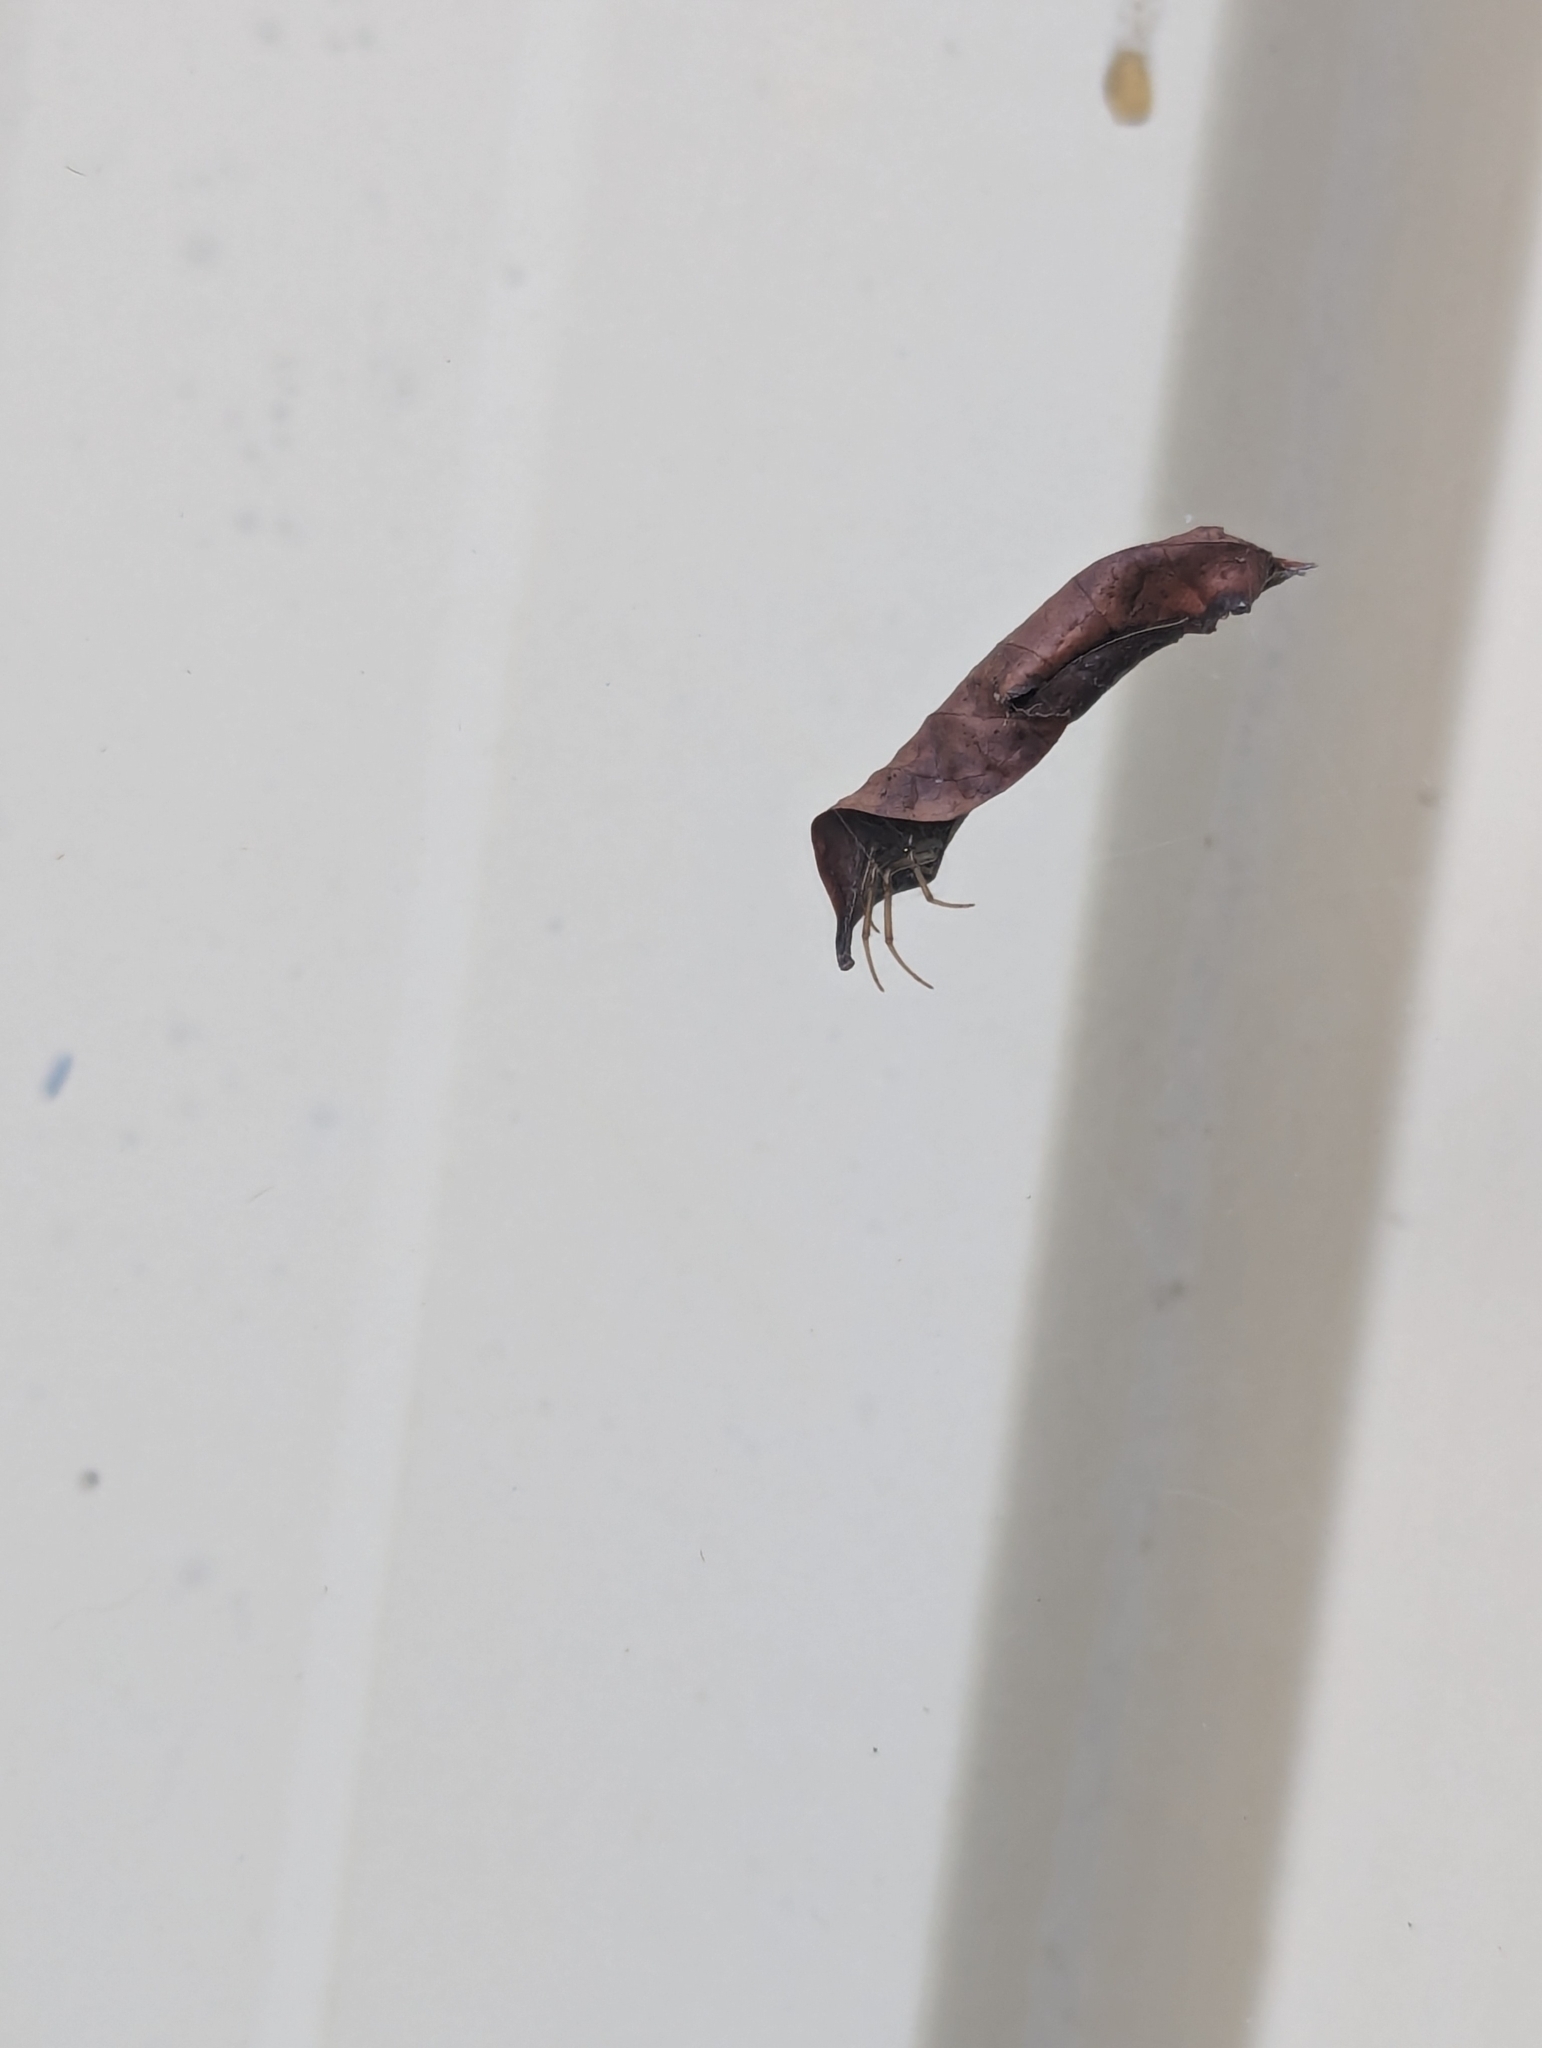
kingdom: Animalia
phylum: Arthropoda
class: Arachnida
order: Araneae
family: Araneidae
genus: Phonognatha
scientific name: Phonognatha graeffei
